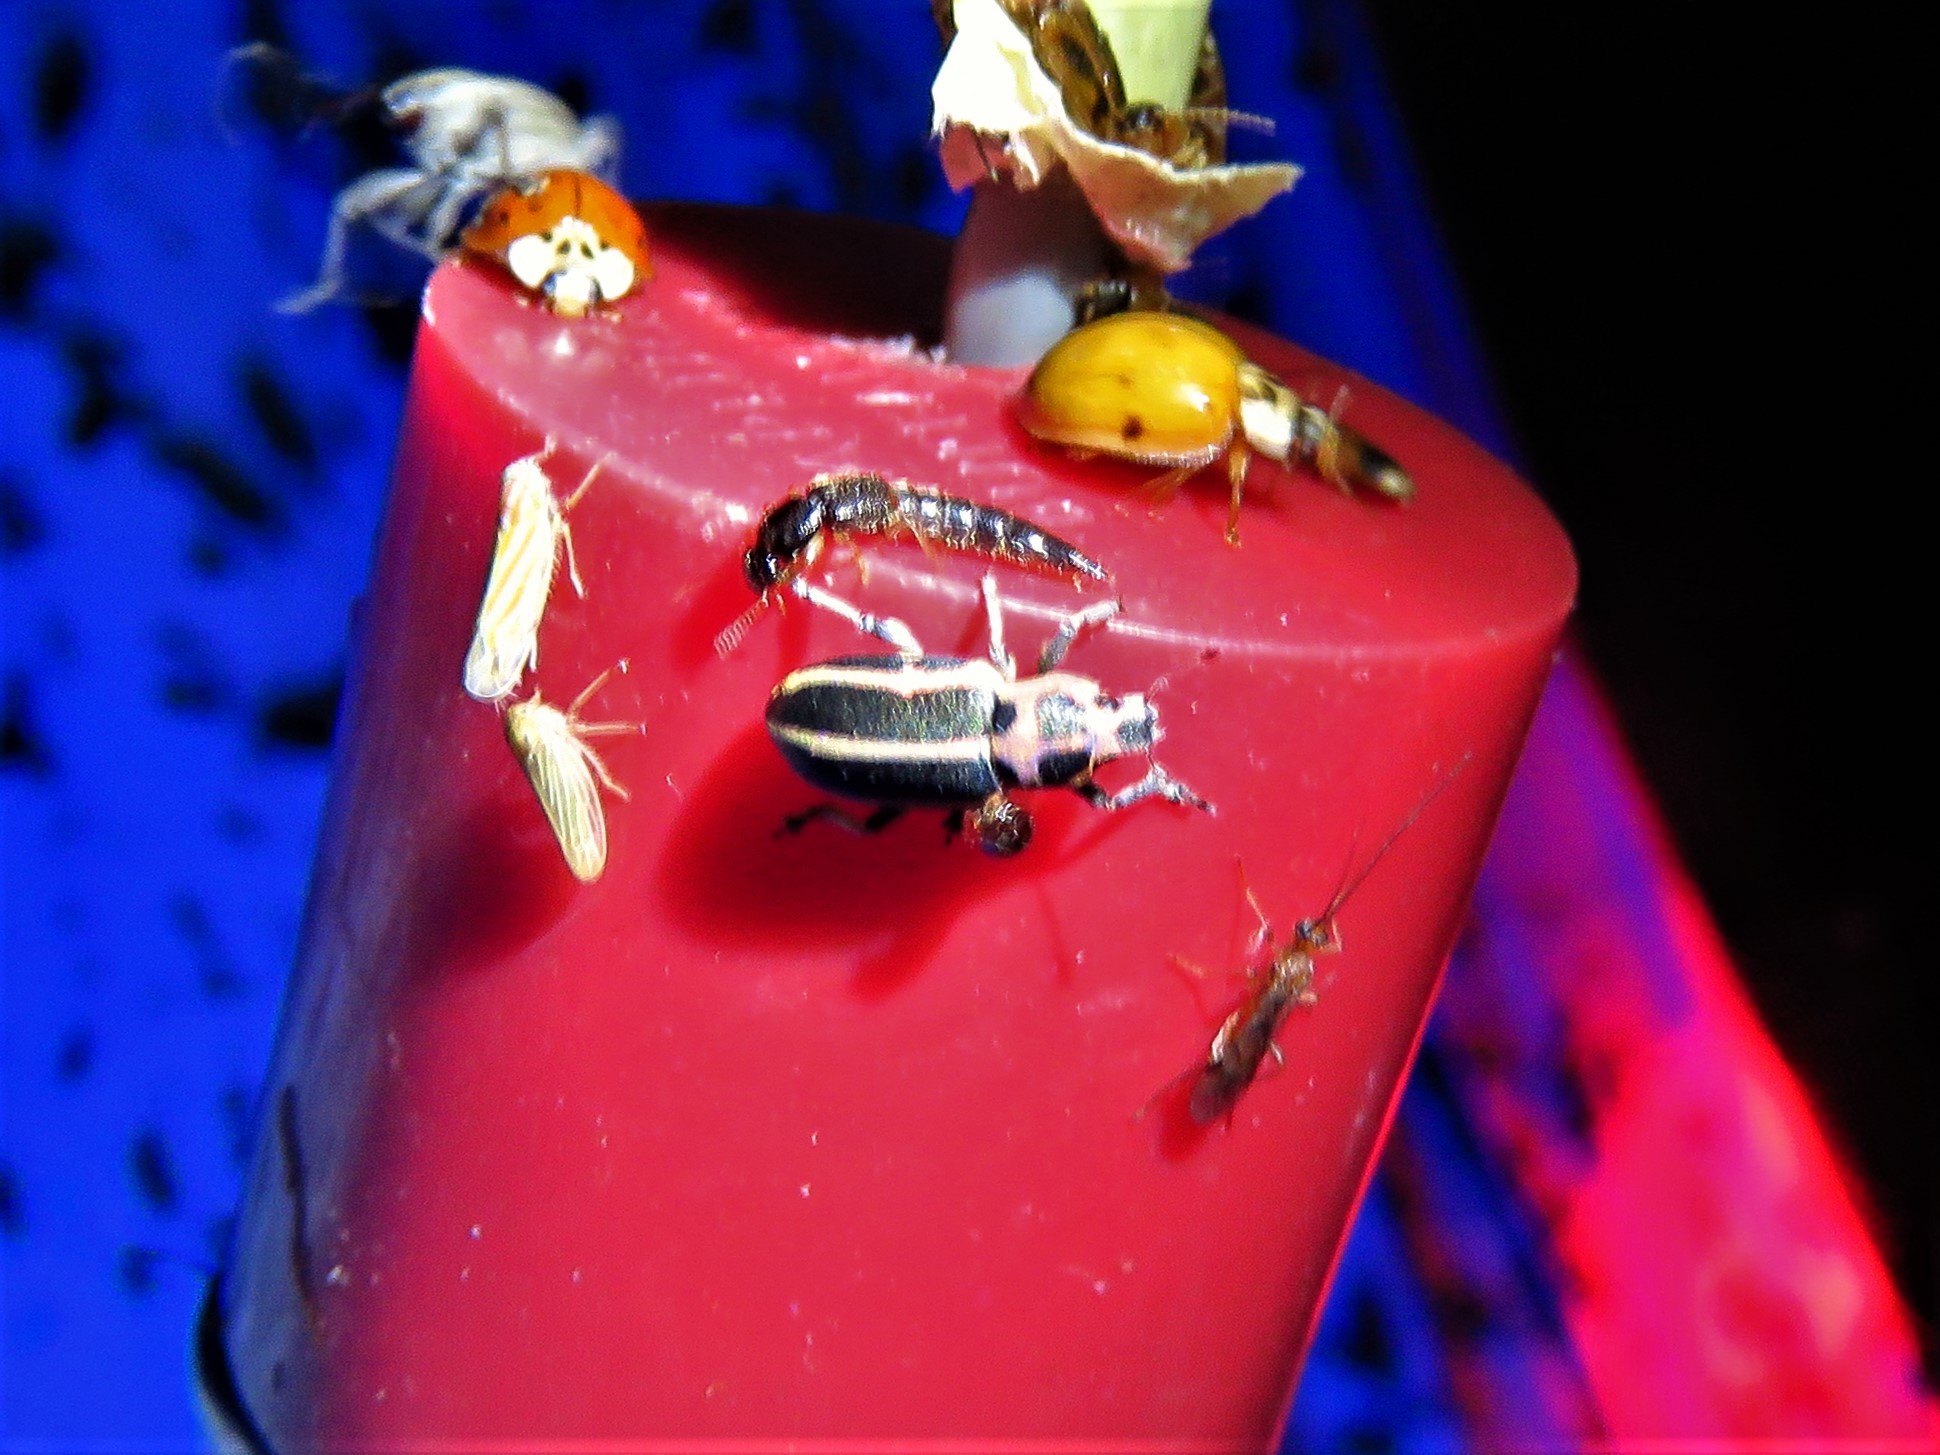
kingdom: Animalia
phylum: Arthropoda
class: Insecta
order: Coleoptera
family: Curculionidae
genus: Eudiagogus
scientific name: Eudiagogus pulcher
